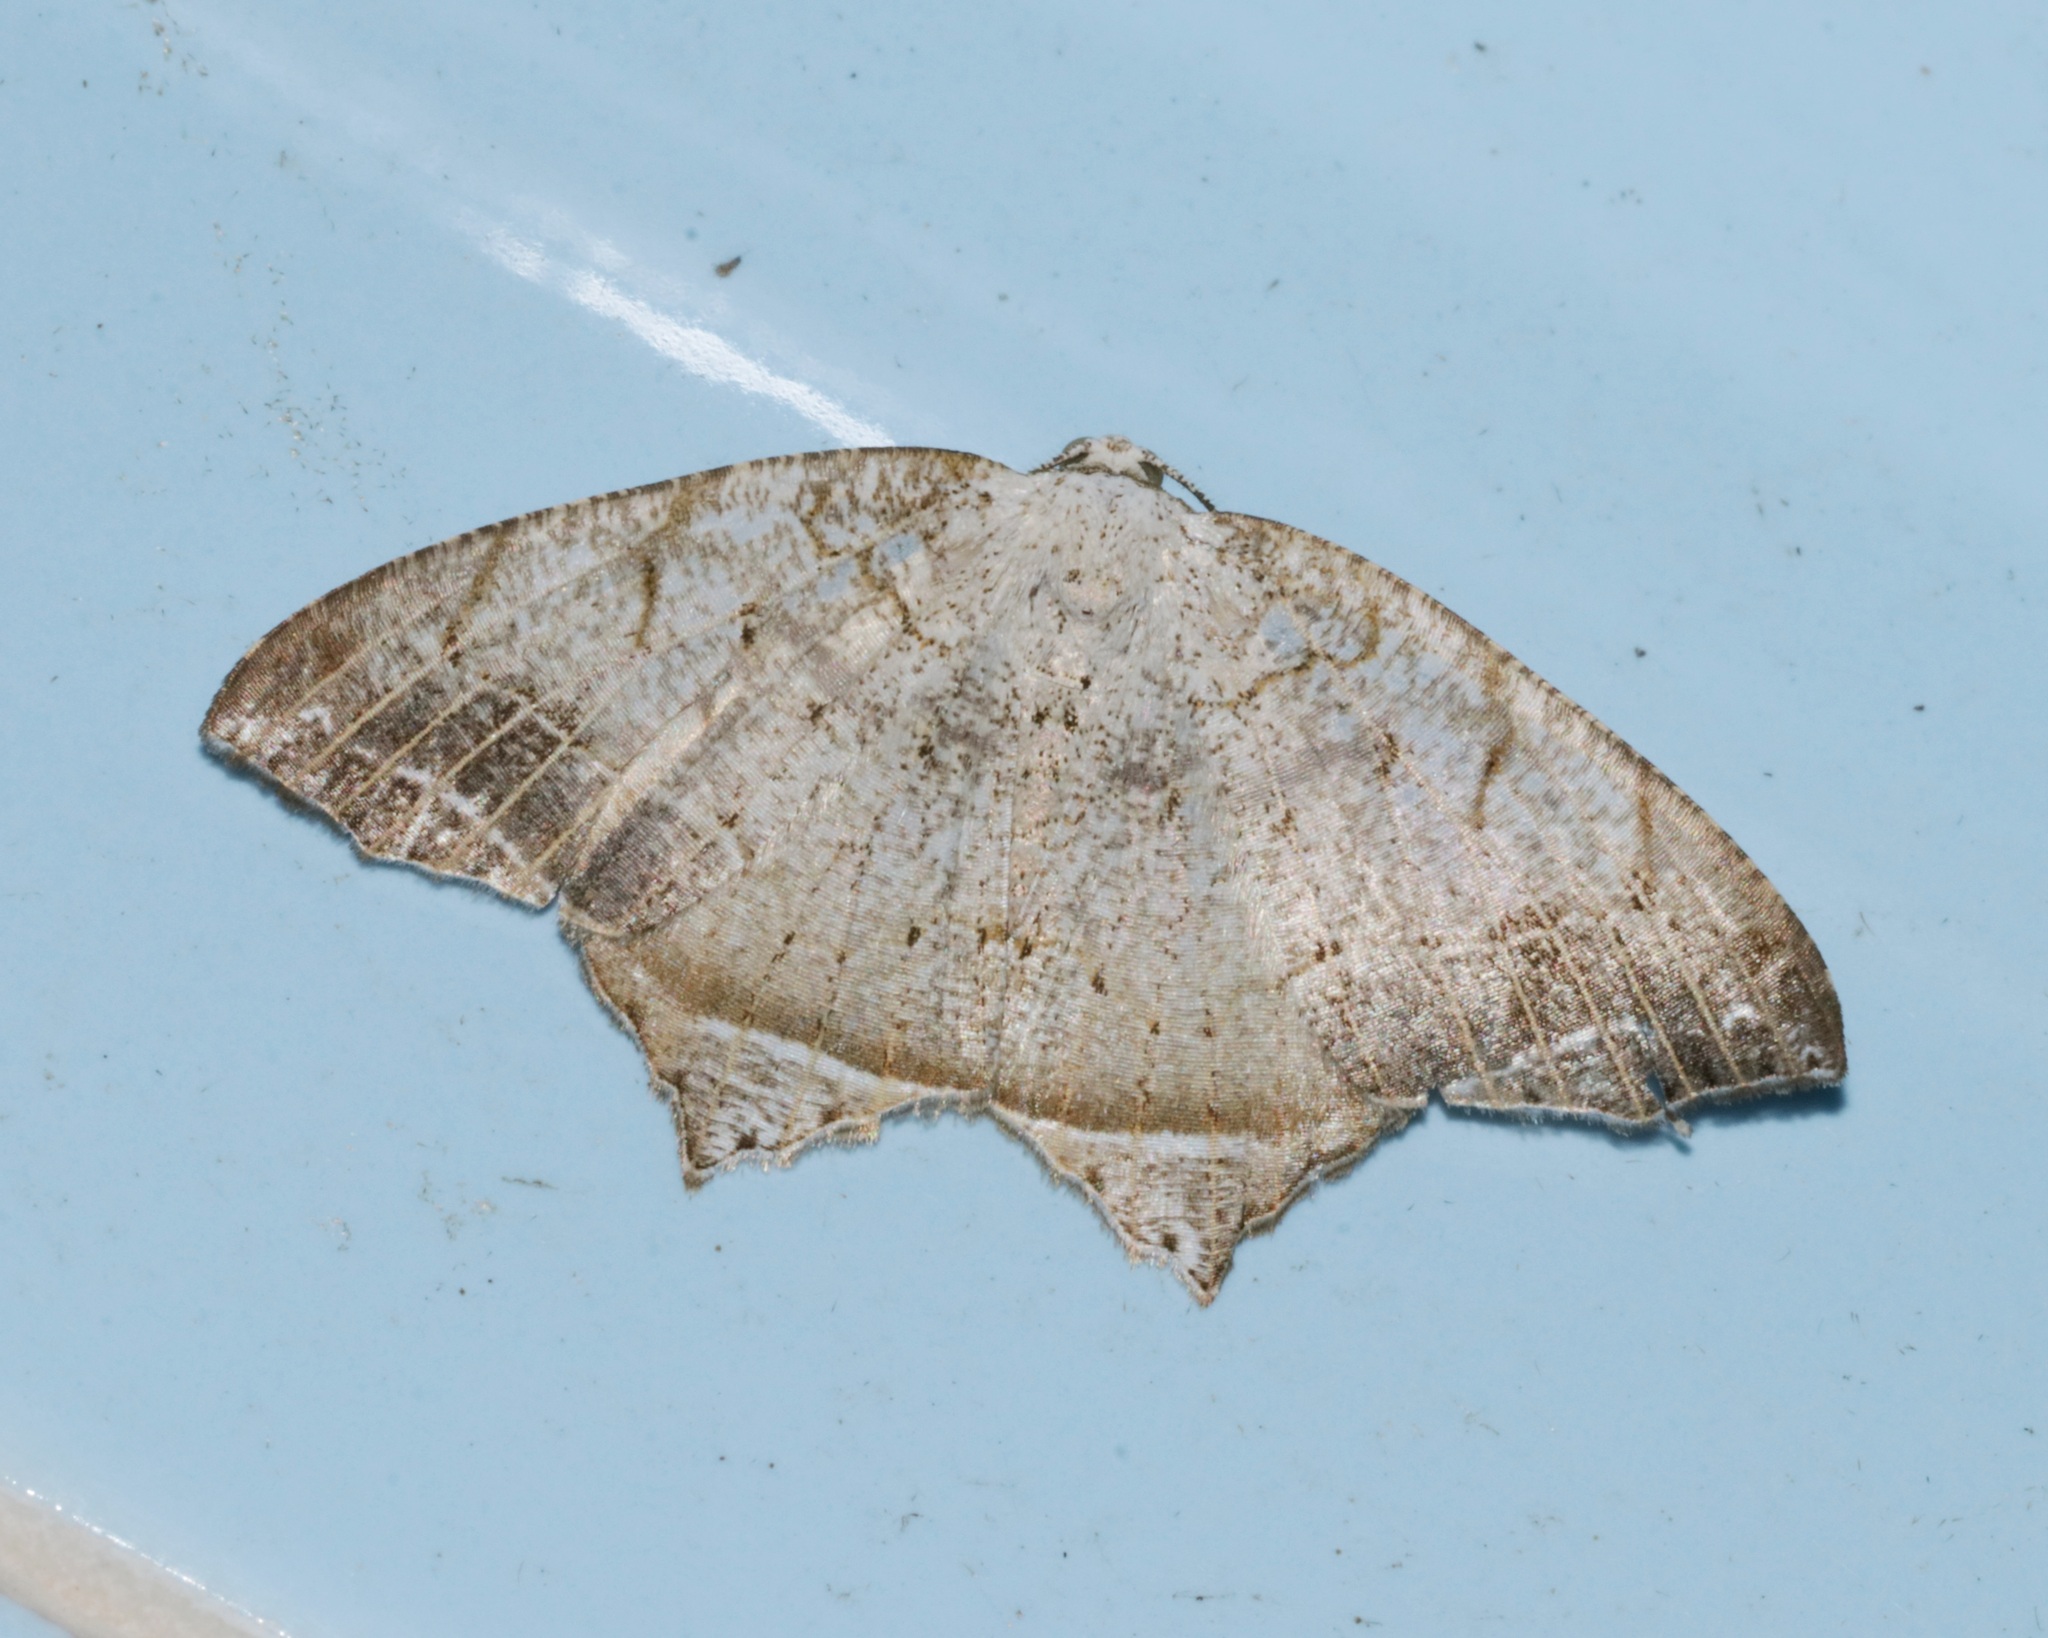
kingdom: Animalia
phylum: Arthropoda
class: Insecta
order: Lepidoptera
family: Geometridae
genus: Oxymacaria
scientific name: Oxymacaria temeraria
